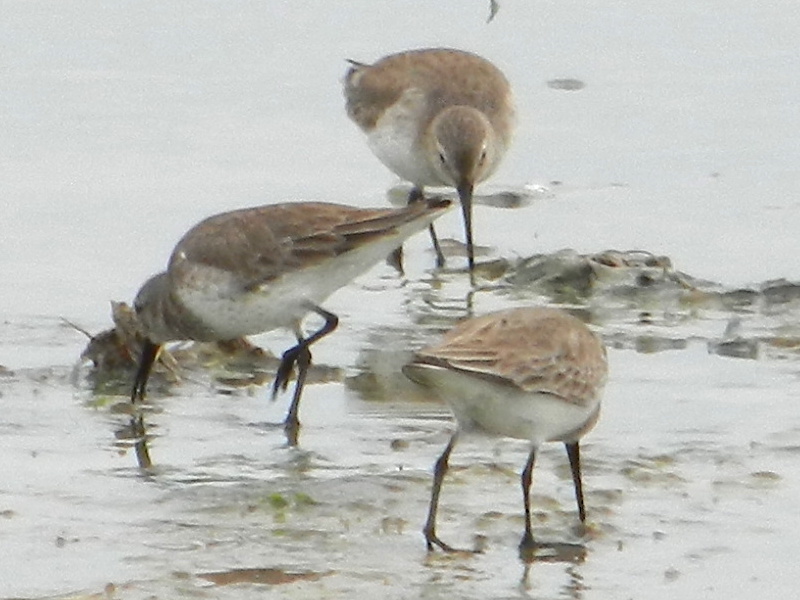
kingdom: Animalia
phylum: Chordata
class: Aves
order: Charadriiformes
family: Scolopacidae
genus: Calidris
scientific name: Calidris alpina
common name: Dunlin
